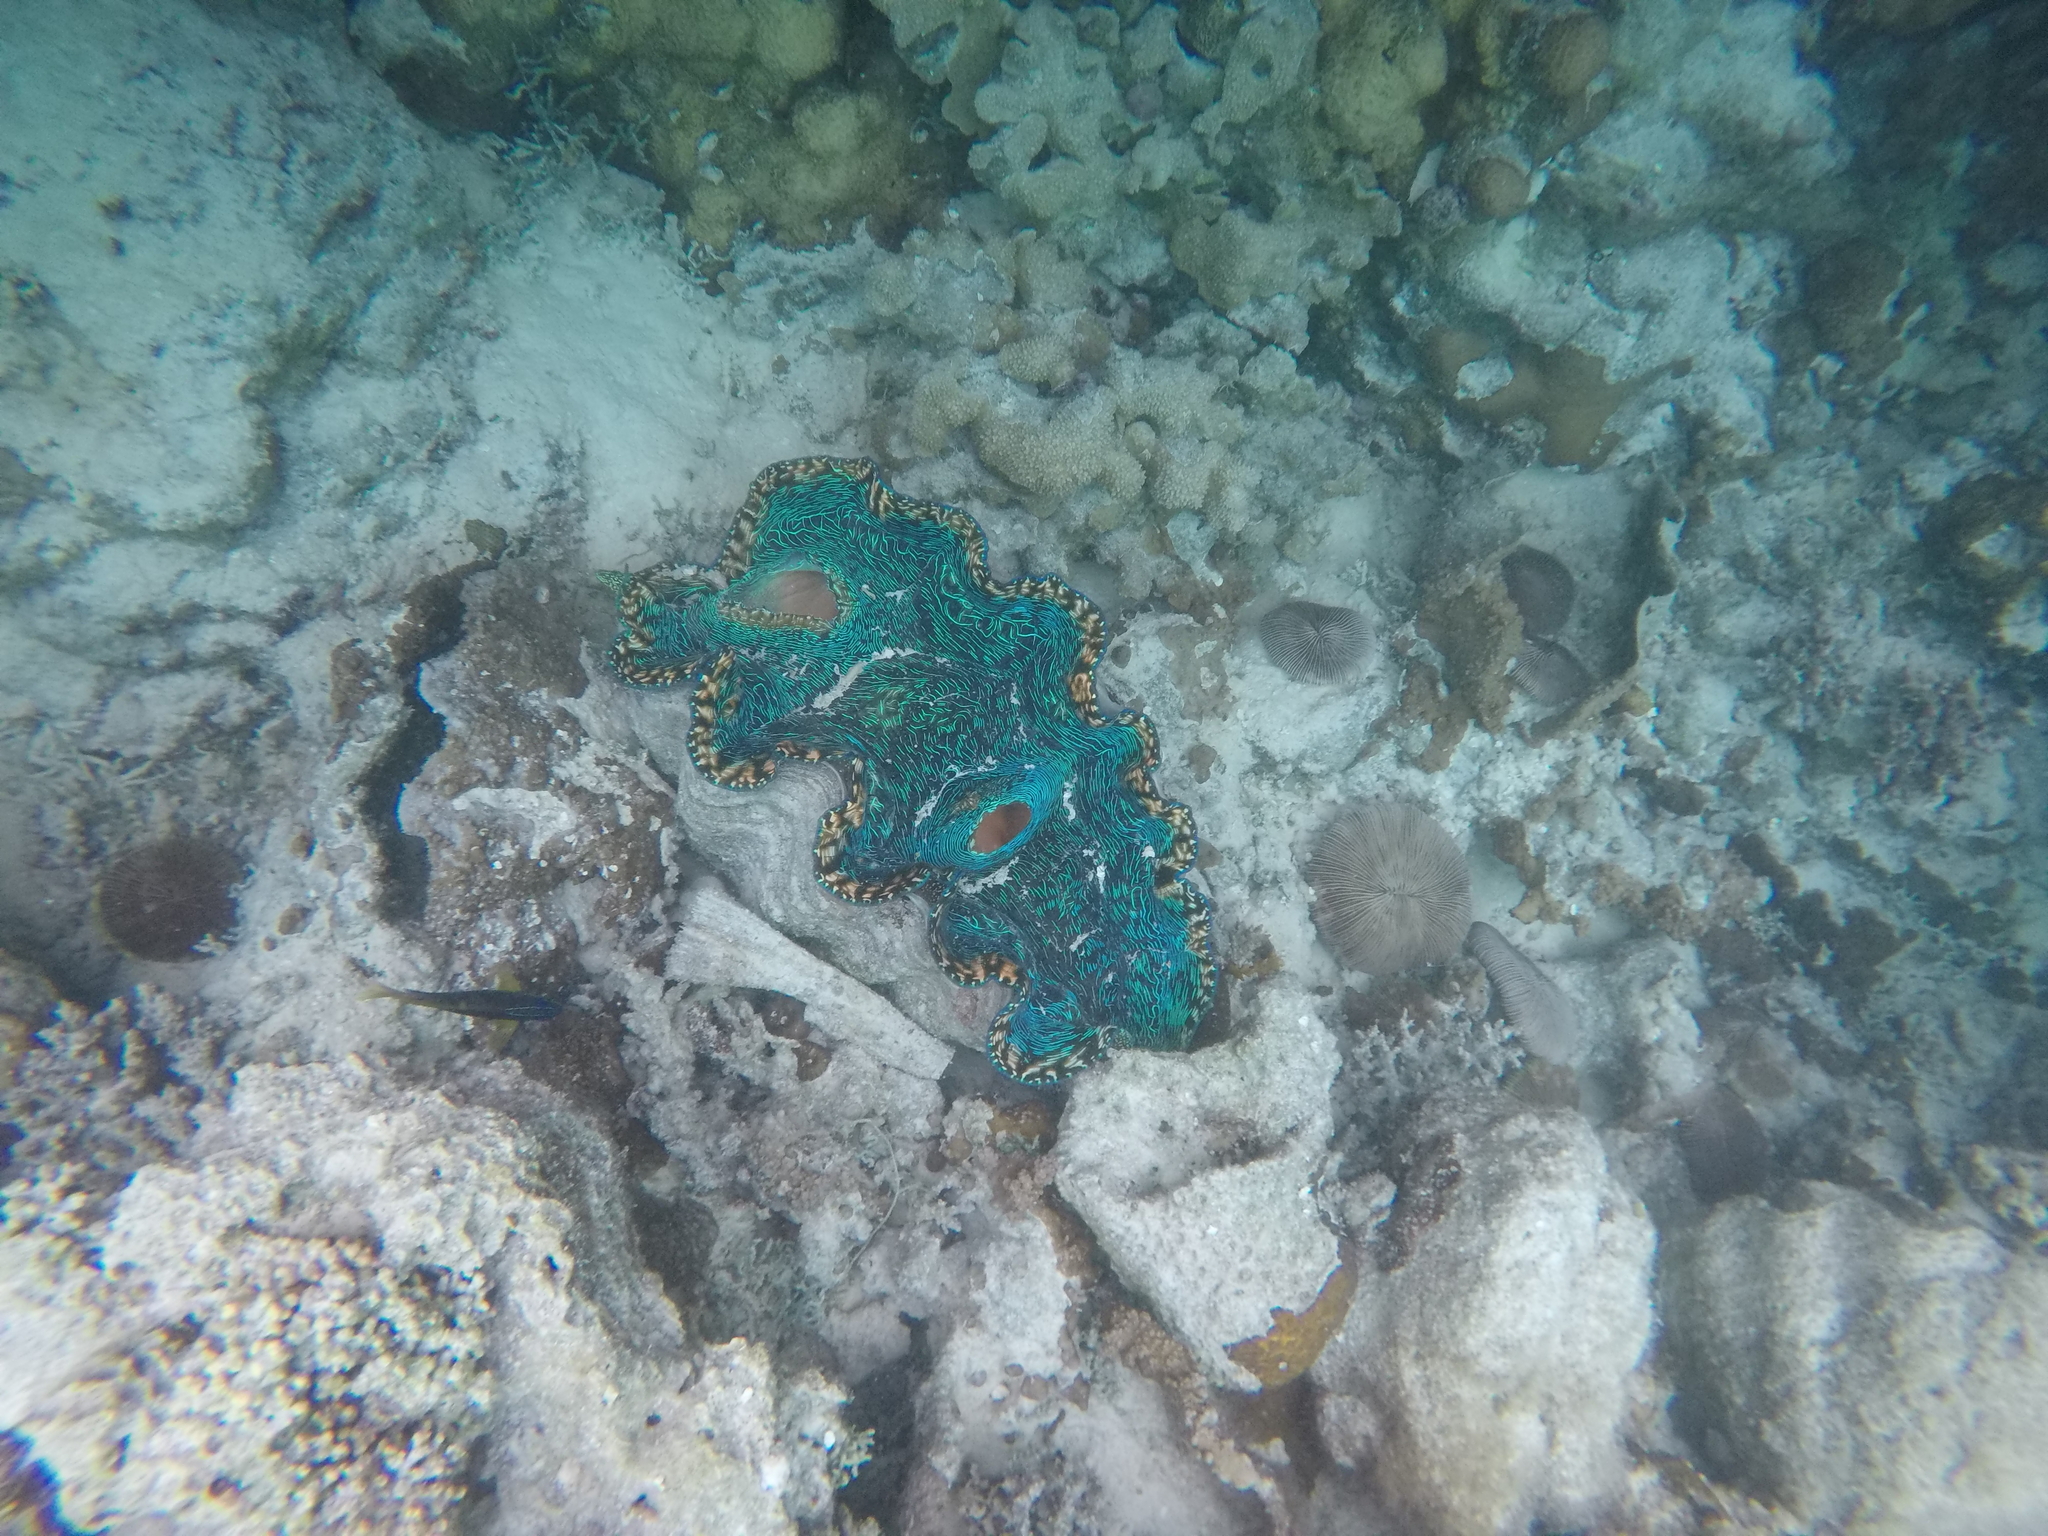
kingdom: Animalia
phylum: Mollusca
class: Bivalvia
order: Cardiida
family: Cardiidae
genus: Tridacna
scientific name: Tridacna derasa
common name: Southern giant clam
